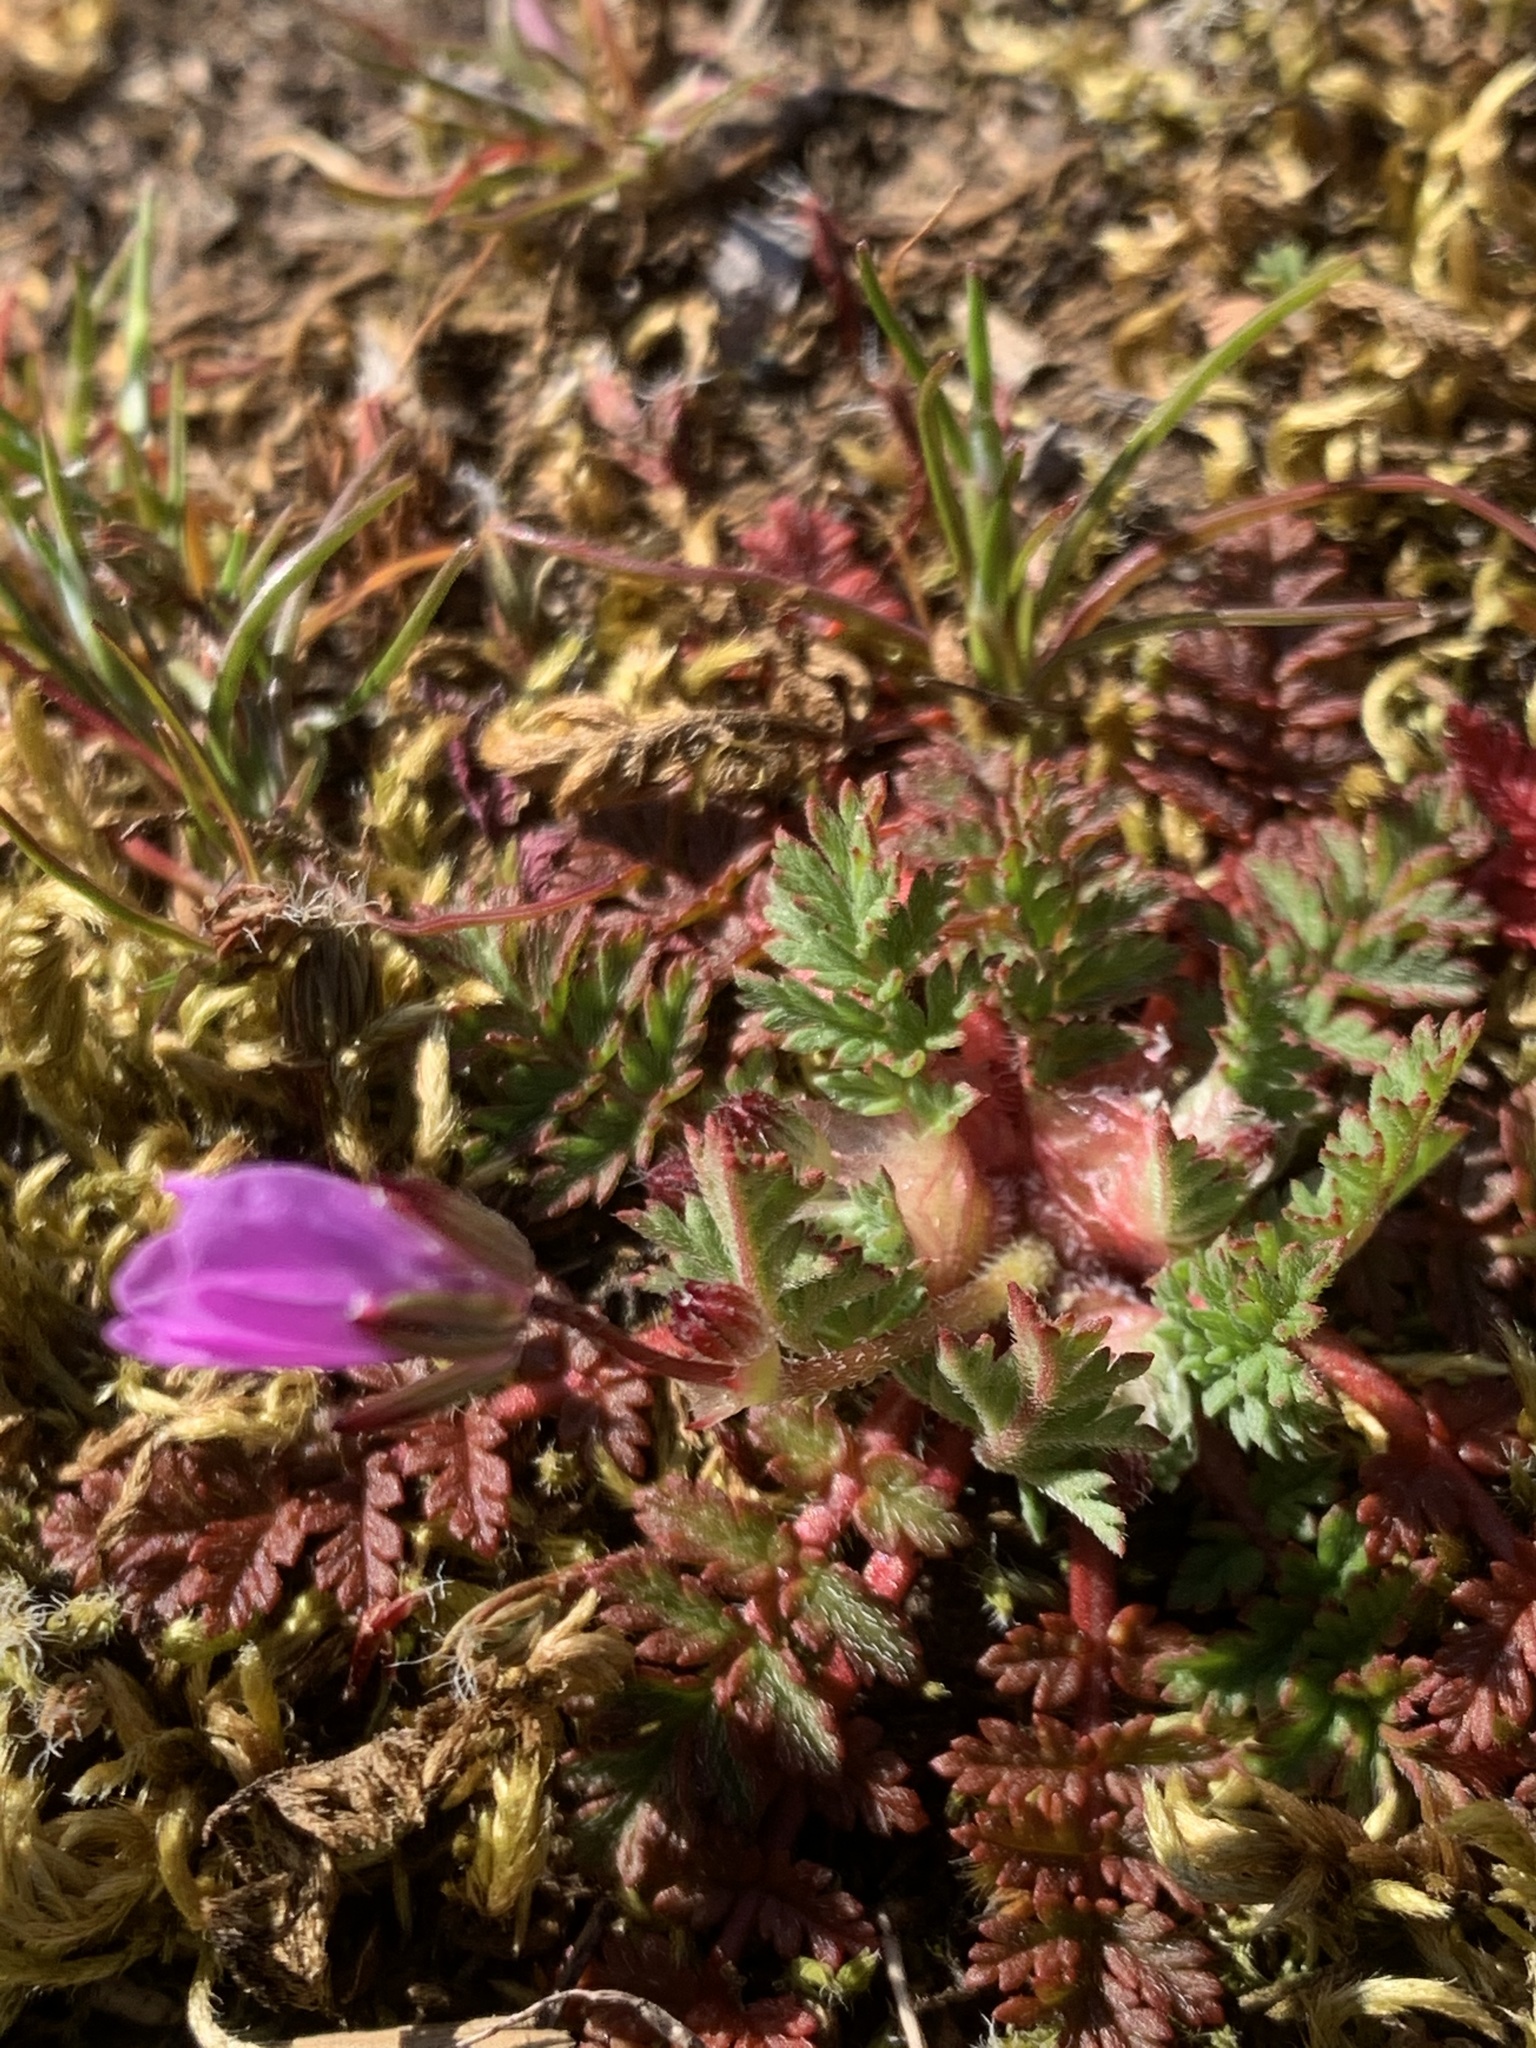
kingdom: Plantae
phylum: Tracheophyta
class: Magnoliopsida
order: Geraniales
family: Geraniaceae
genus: Erodium
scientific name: Erodium cicutarium
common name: Common stork's-bill
